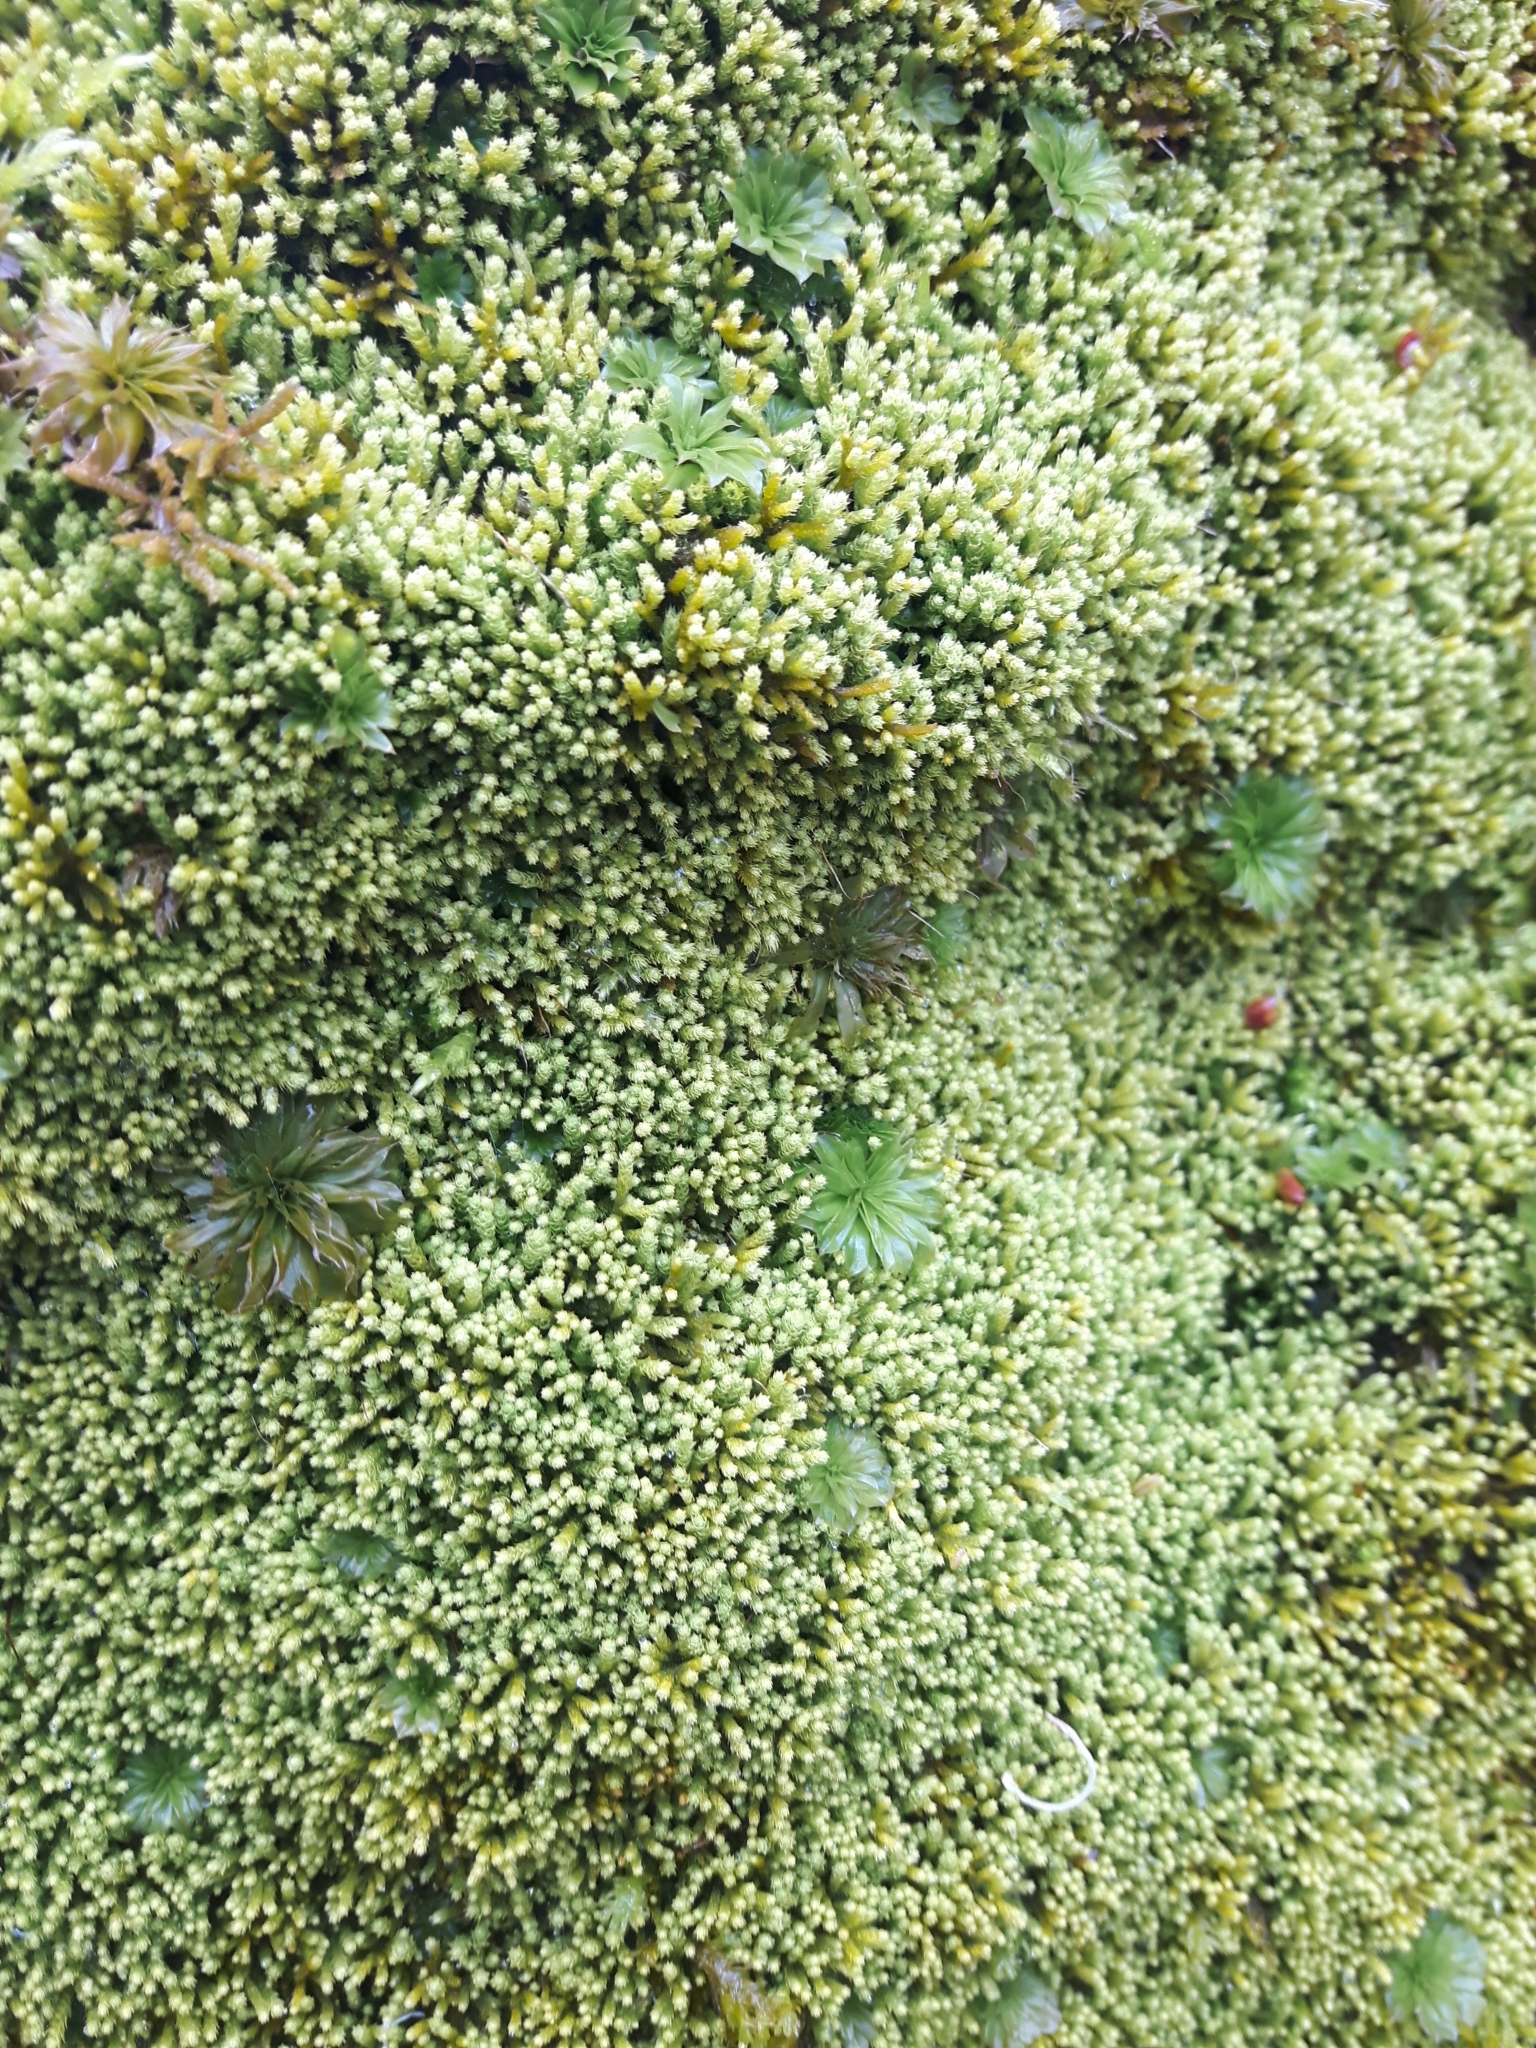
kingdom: Plantae
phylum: Bryophyta
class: Bryopsida
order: Bryales
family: Bryaceae
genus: Rhodobryum
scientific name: Rhodobryum ontariense
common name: Ontario rhodobryum moss
